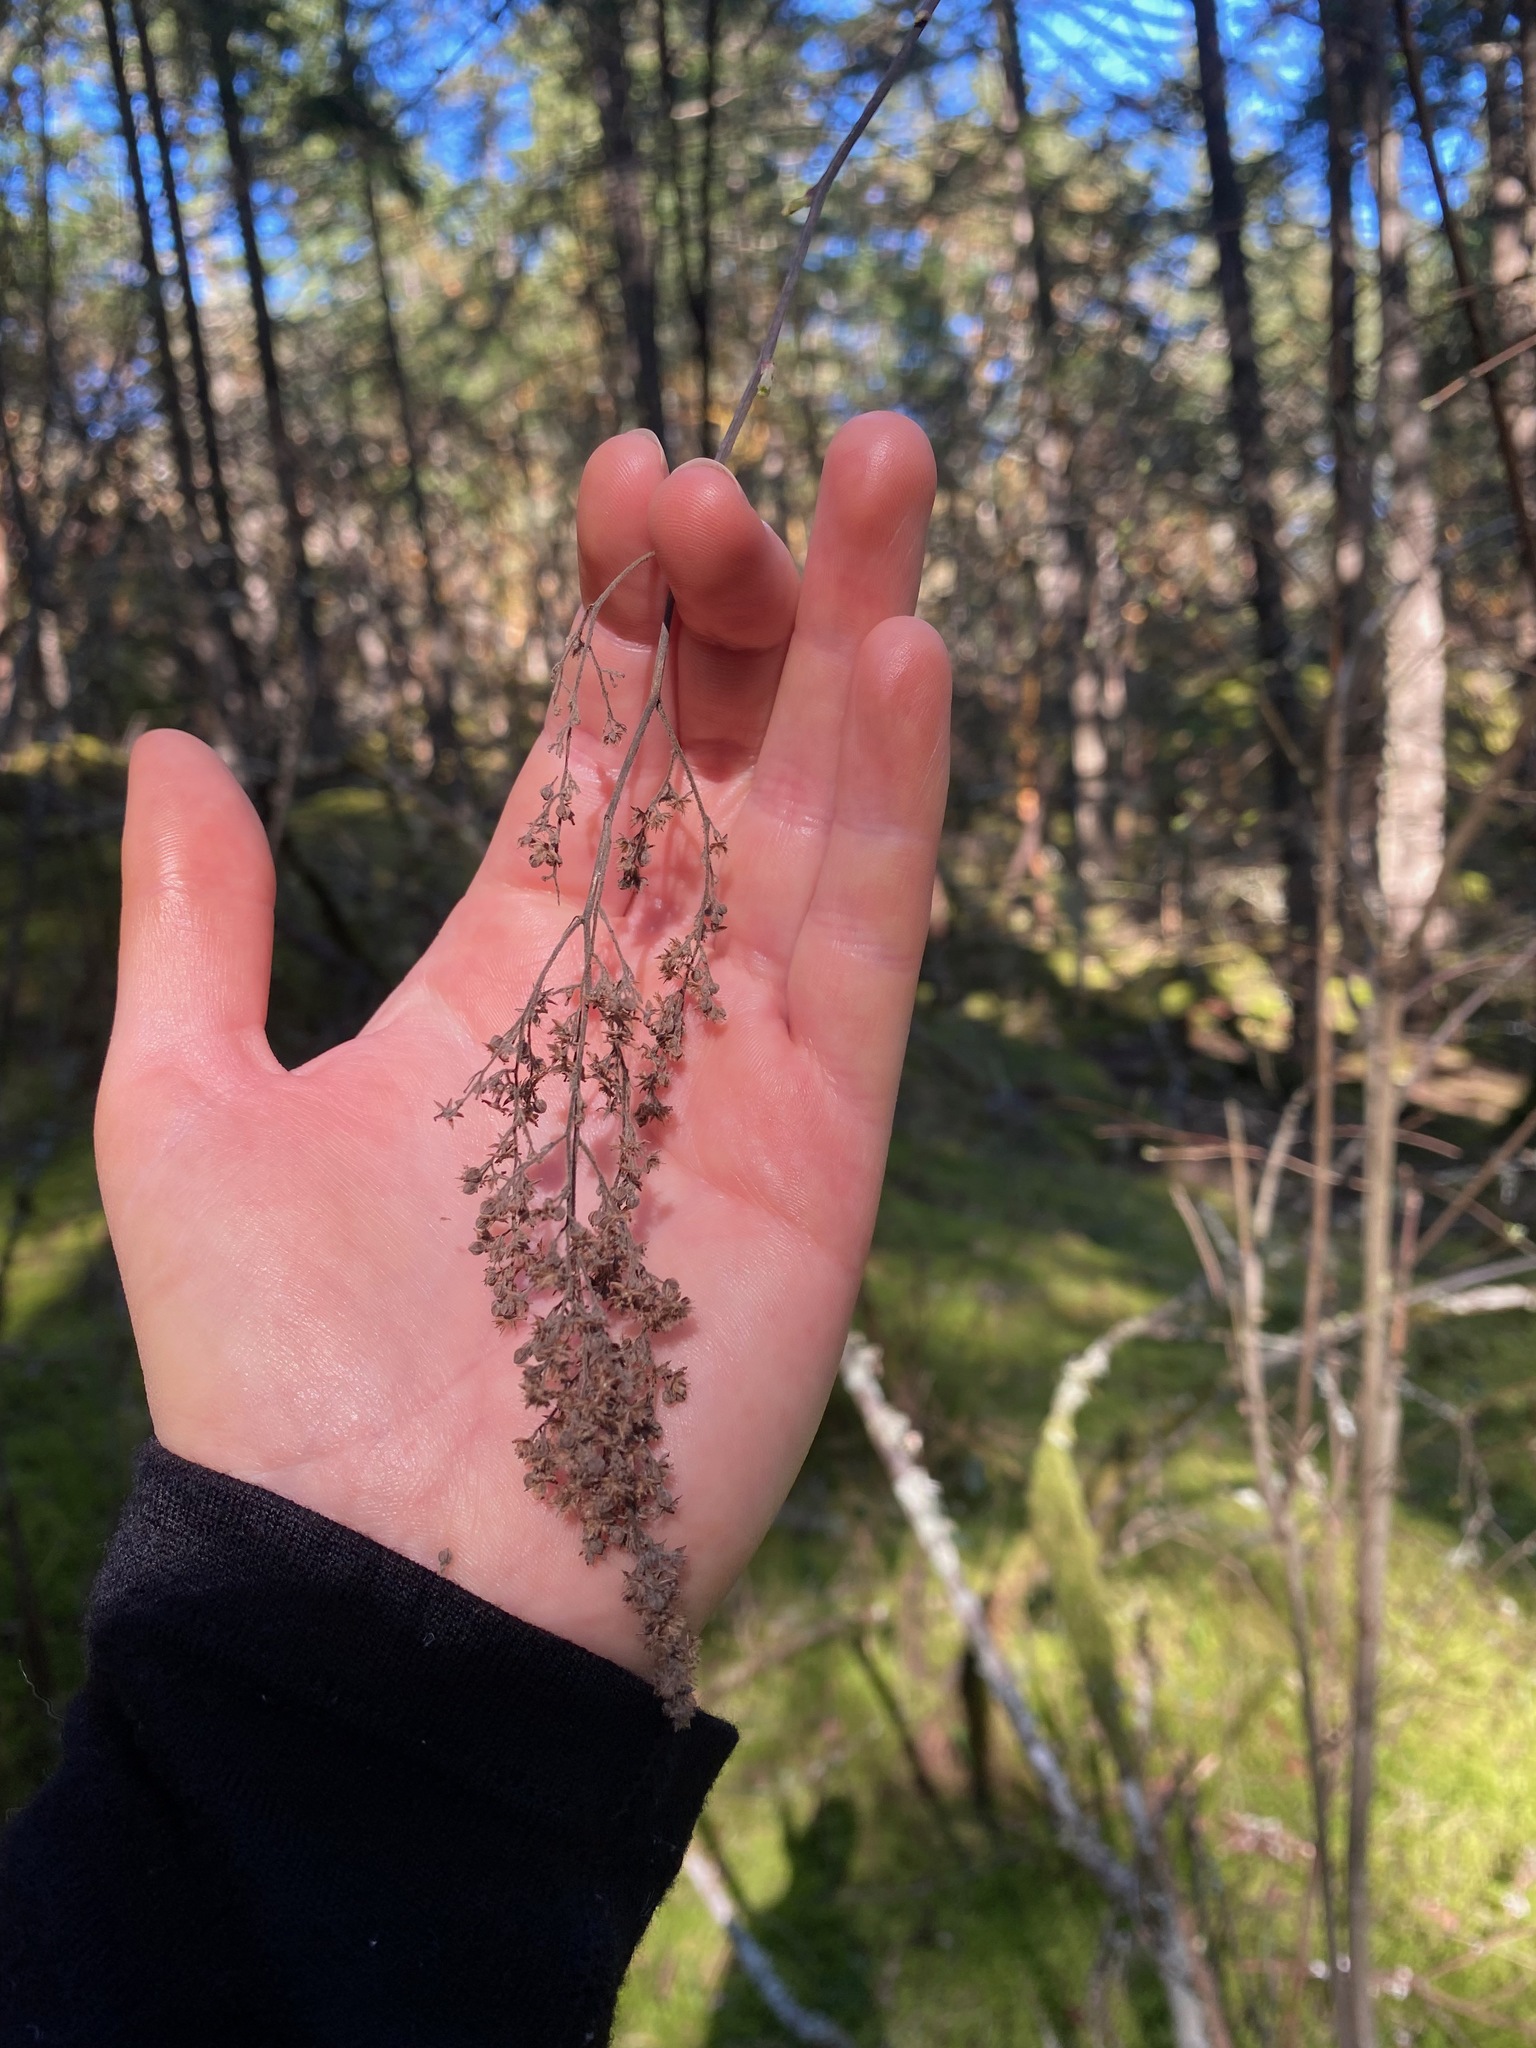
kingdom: Plantae
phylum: Tracheophyta
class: Magnoliopsida
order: Rosales
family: Rosaceae
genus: Holodiscus
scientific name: Holodiscus discolor
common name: Oceanspray
